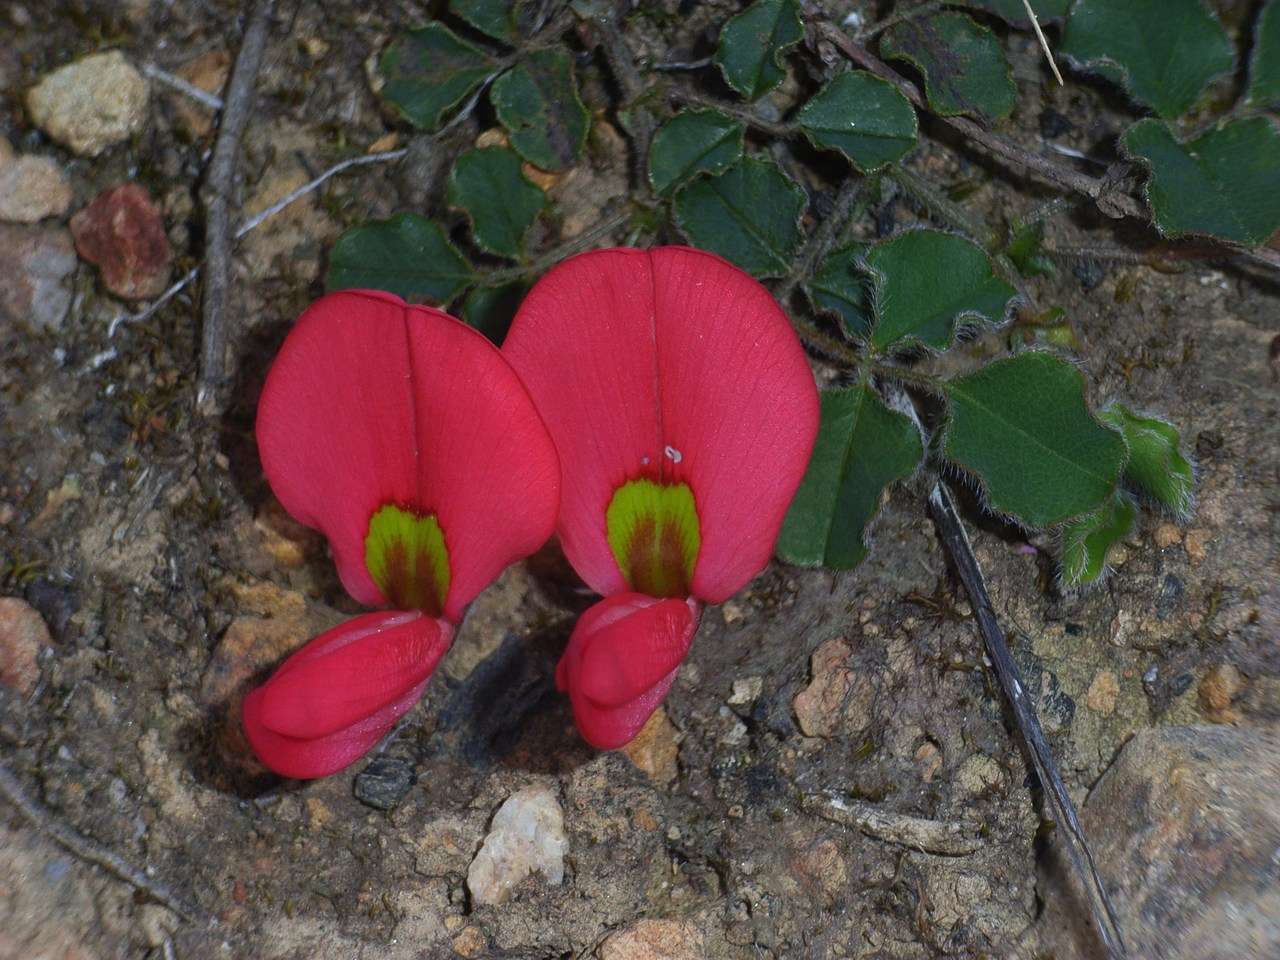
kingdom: Plantae
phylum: Tracheophyta
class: Magnoliopsida
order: Fabales
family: Fabaceae
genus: Kennedia
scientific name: Kennedia prostrata
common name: Running-postman
